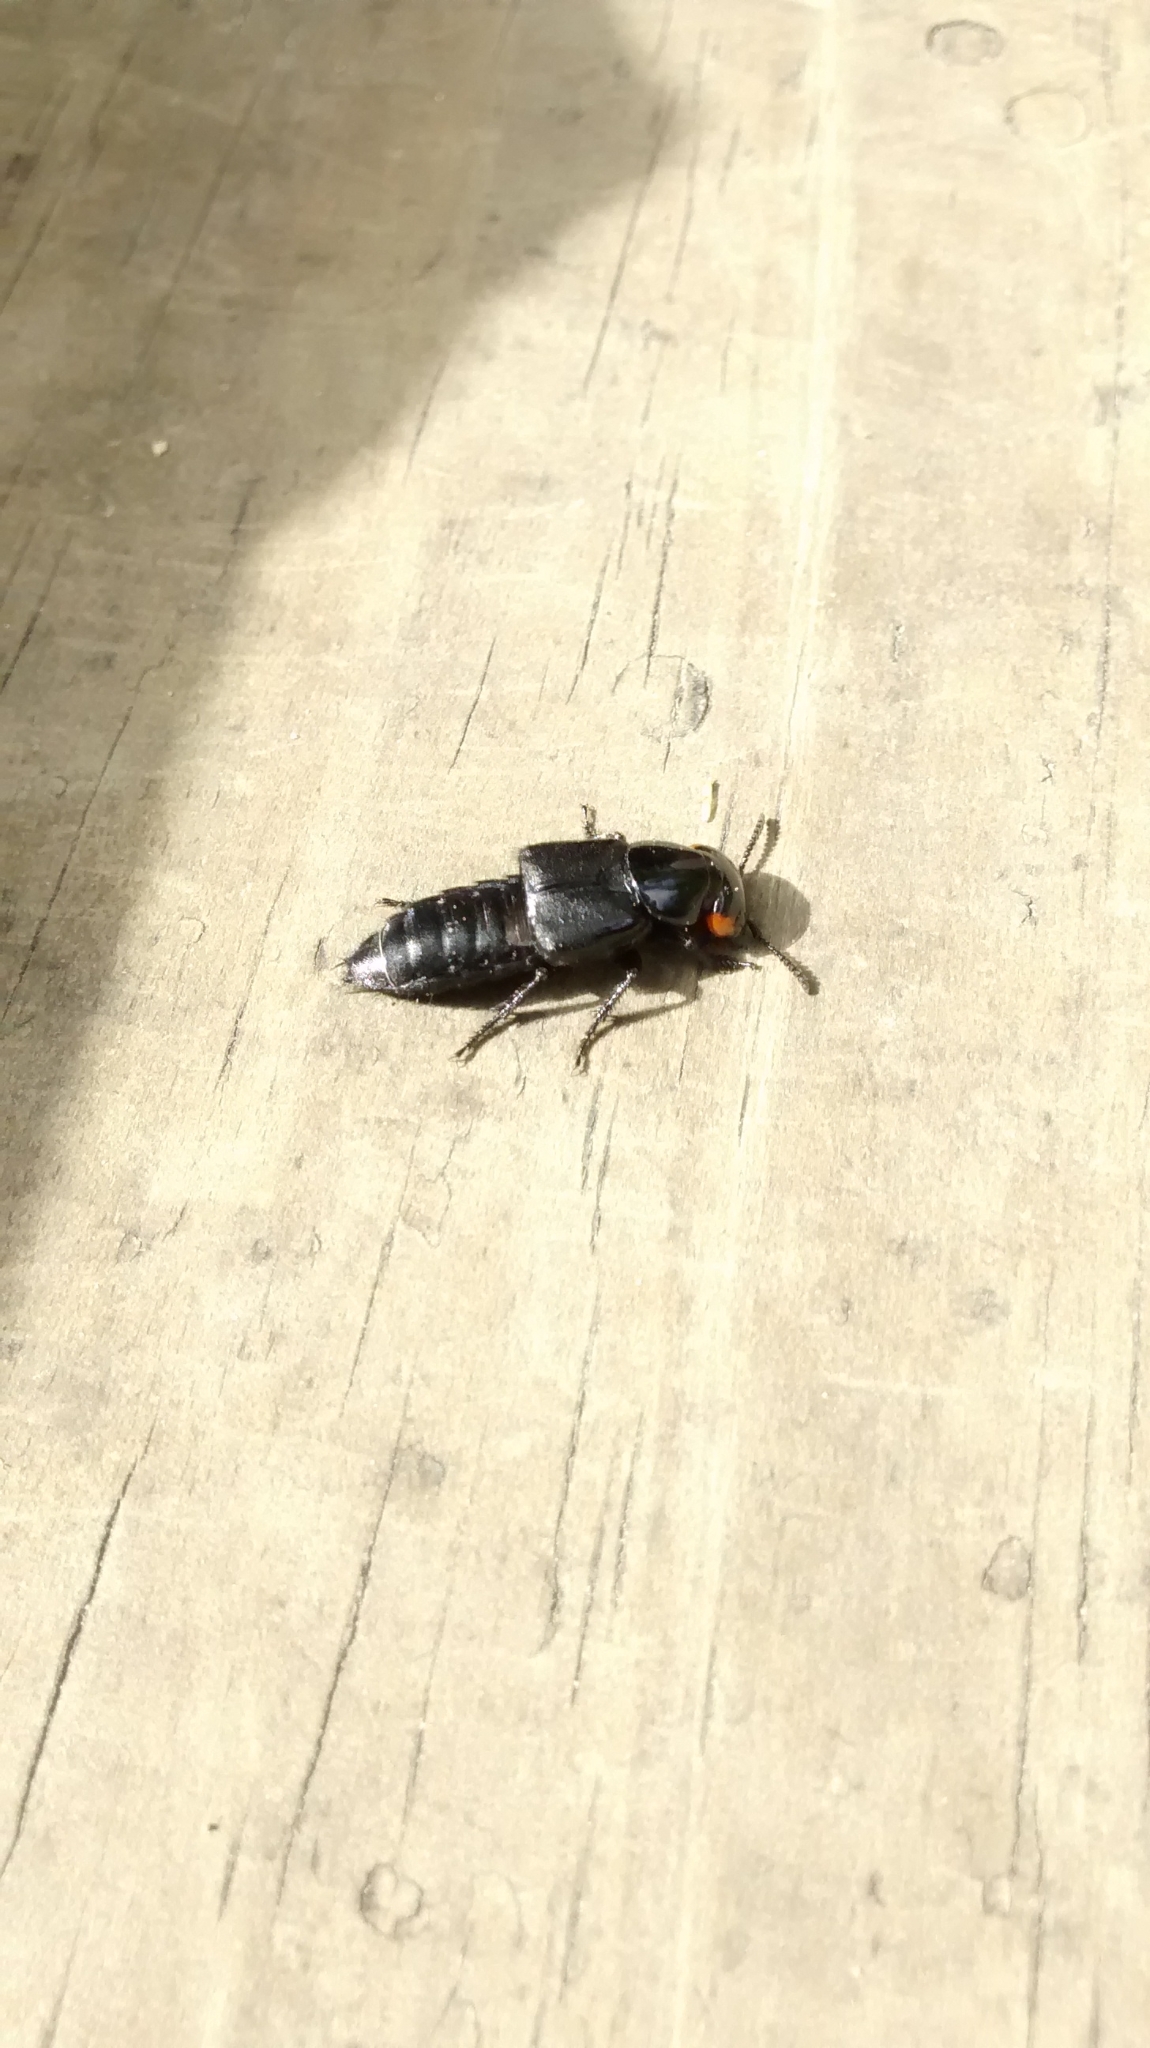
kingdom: Animalia
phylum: Arthropoda
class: Insecta
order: Coleoptera
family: Staphylinidae
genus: Creophilus
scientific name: Creophilus oculatus
